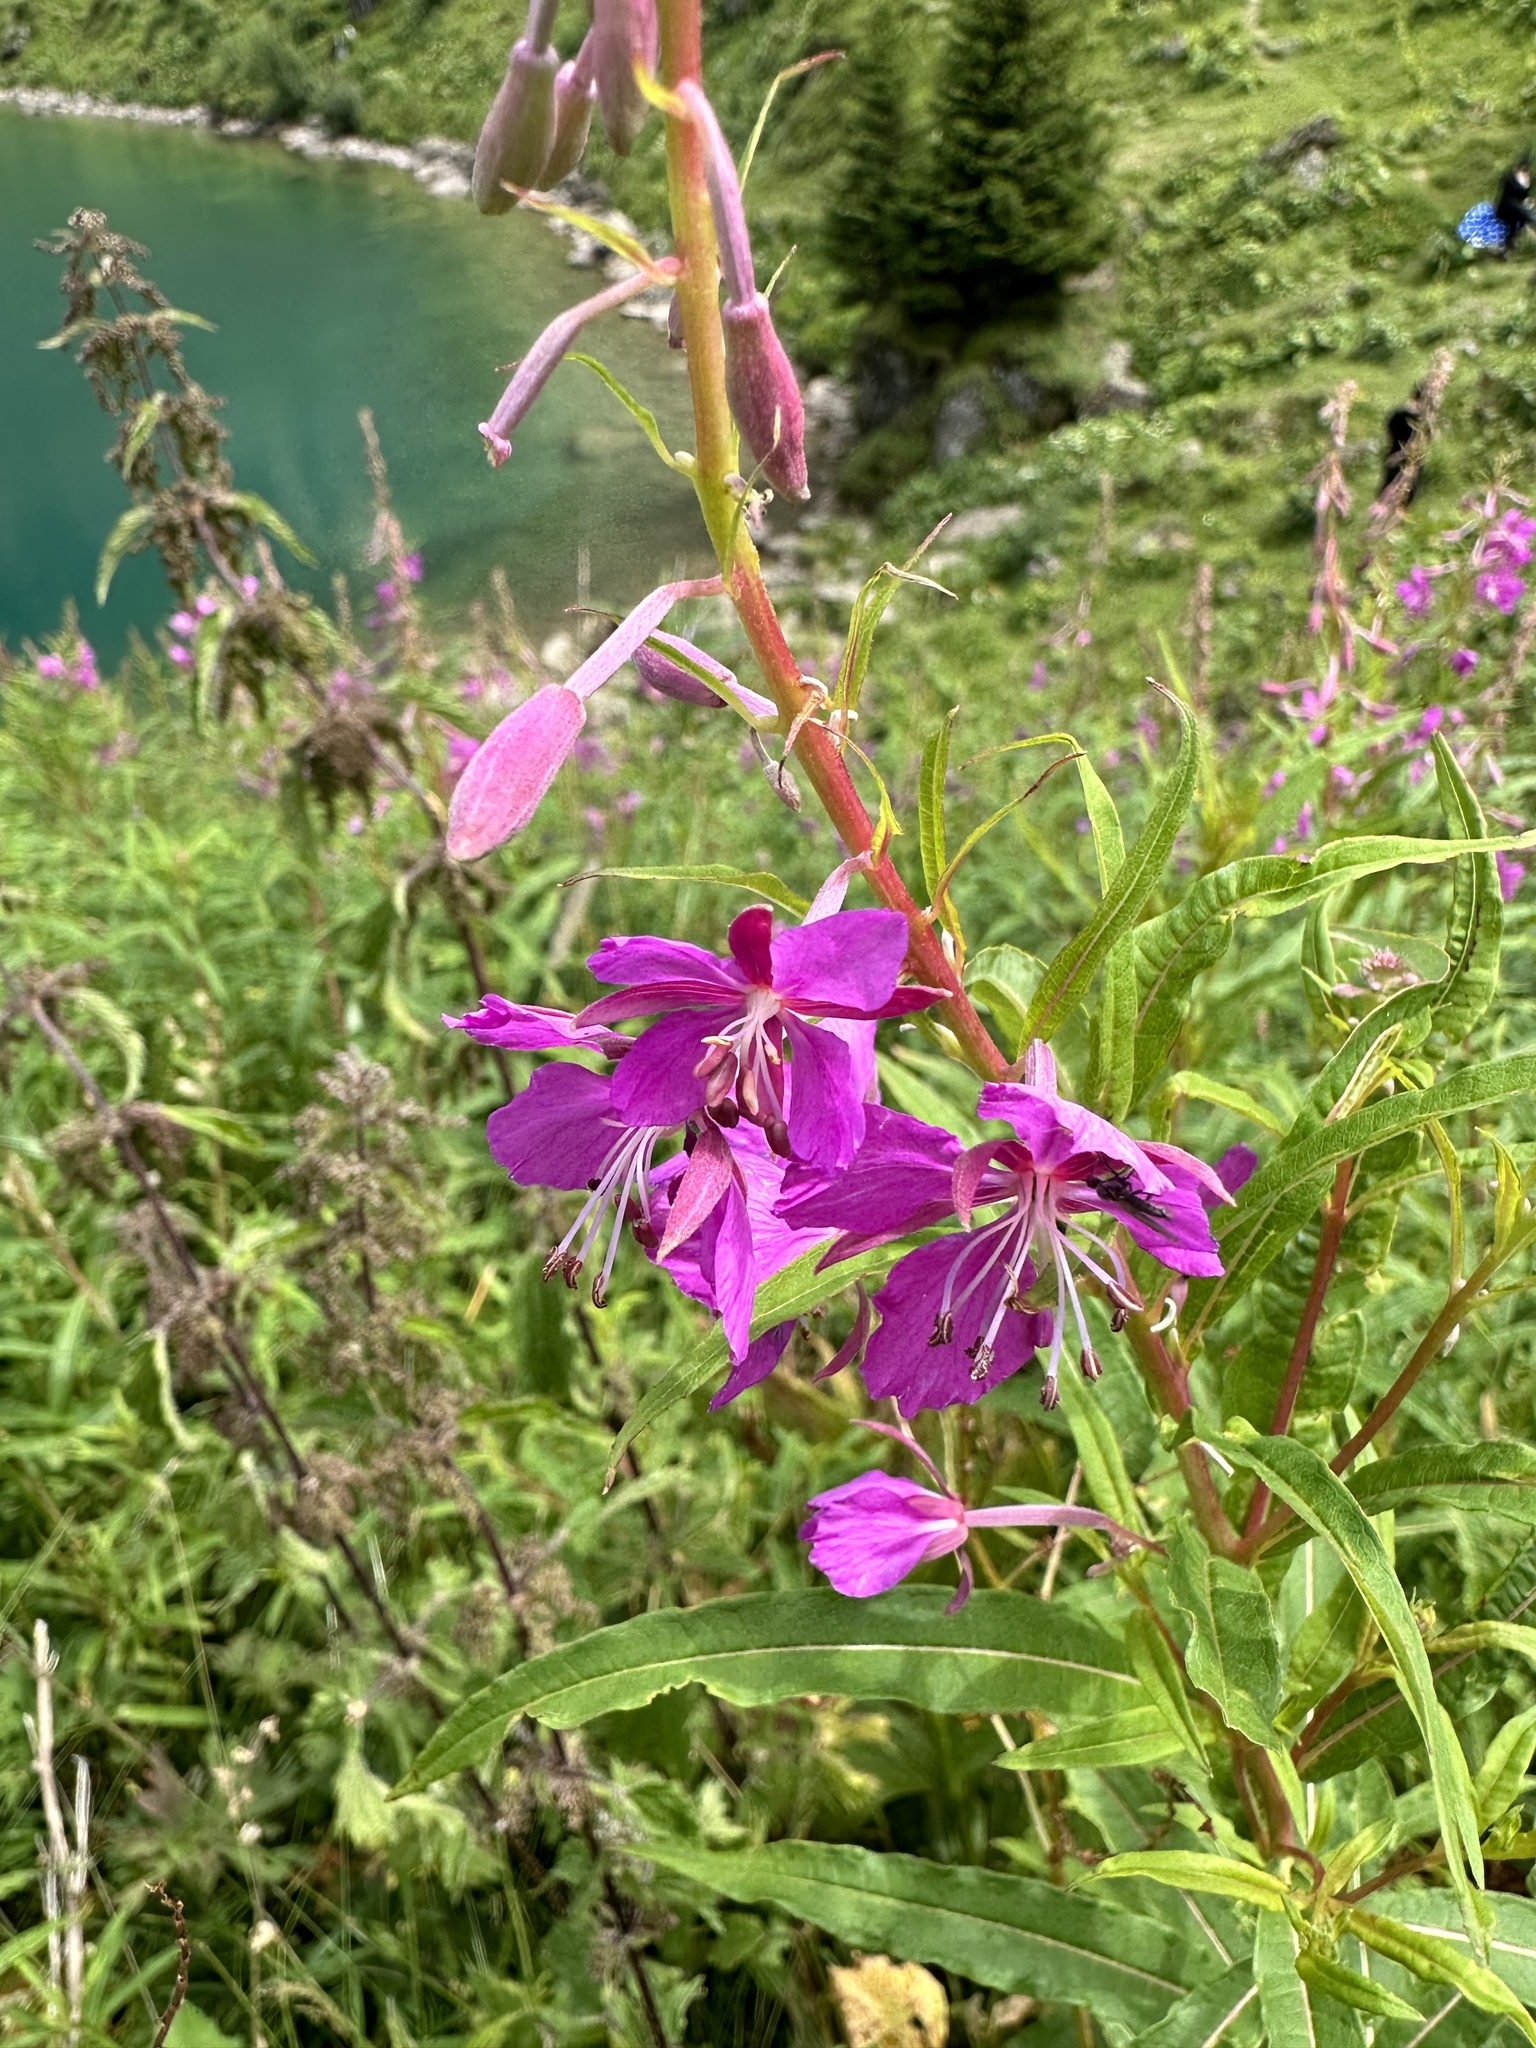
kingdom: Plantae
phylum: Tracheophyta
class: Magnoliopsida
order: Myrtales
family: Onagraceae
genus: Chamaenerion
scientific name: Chamaenerion angustifolium
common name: Fireweed
